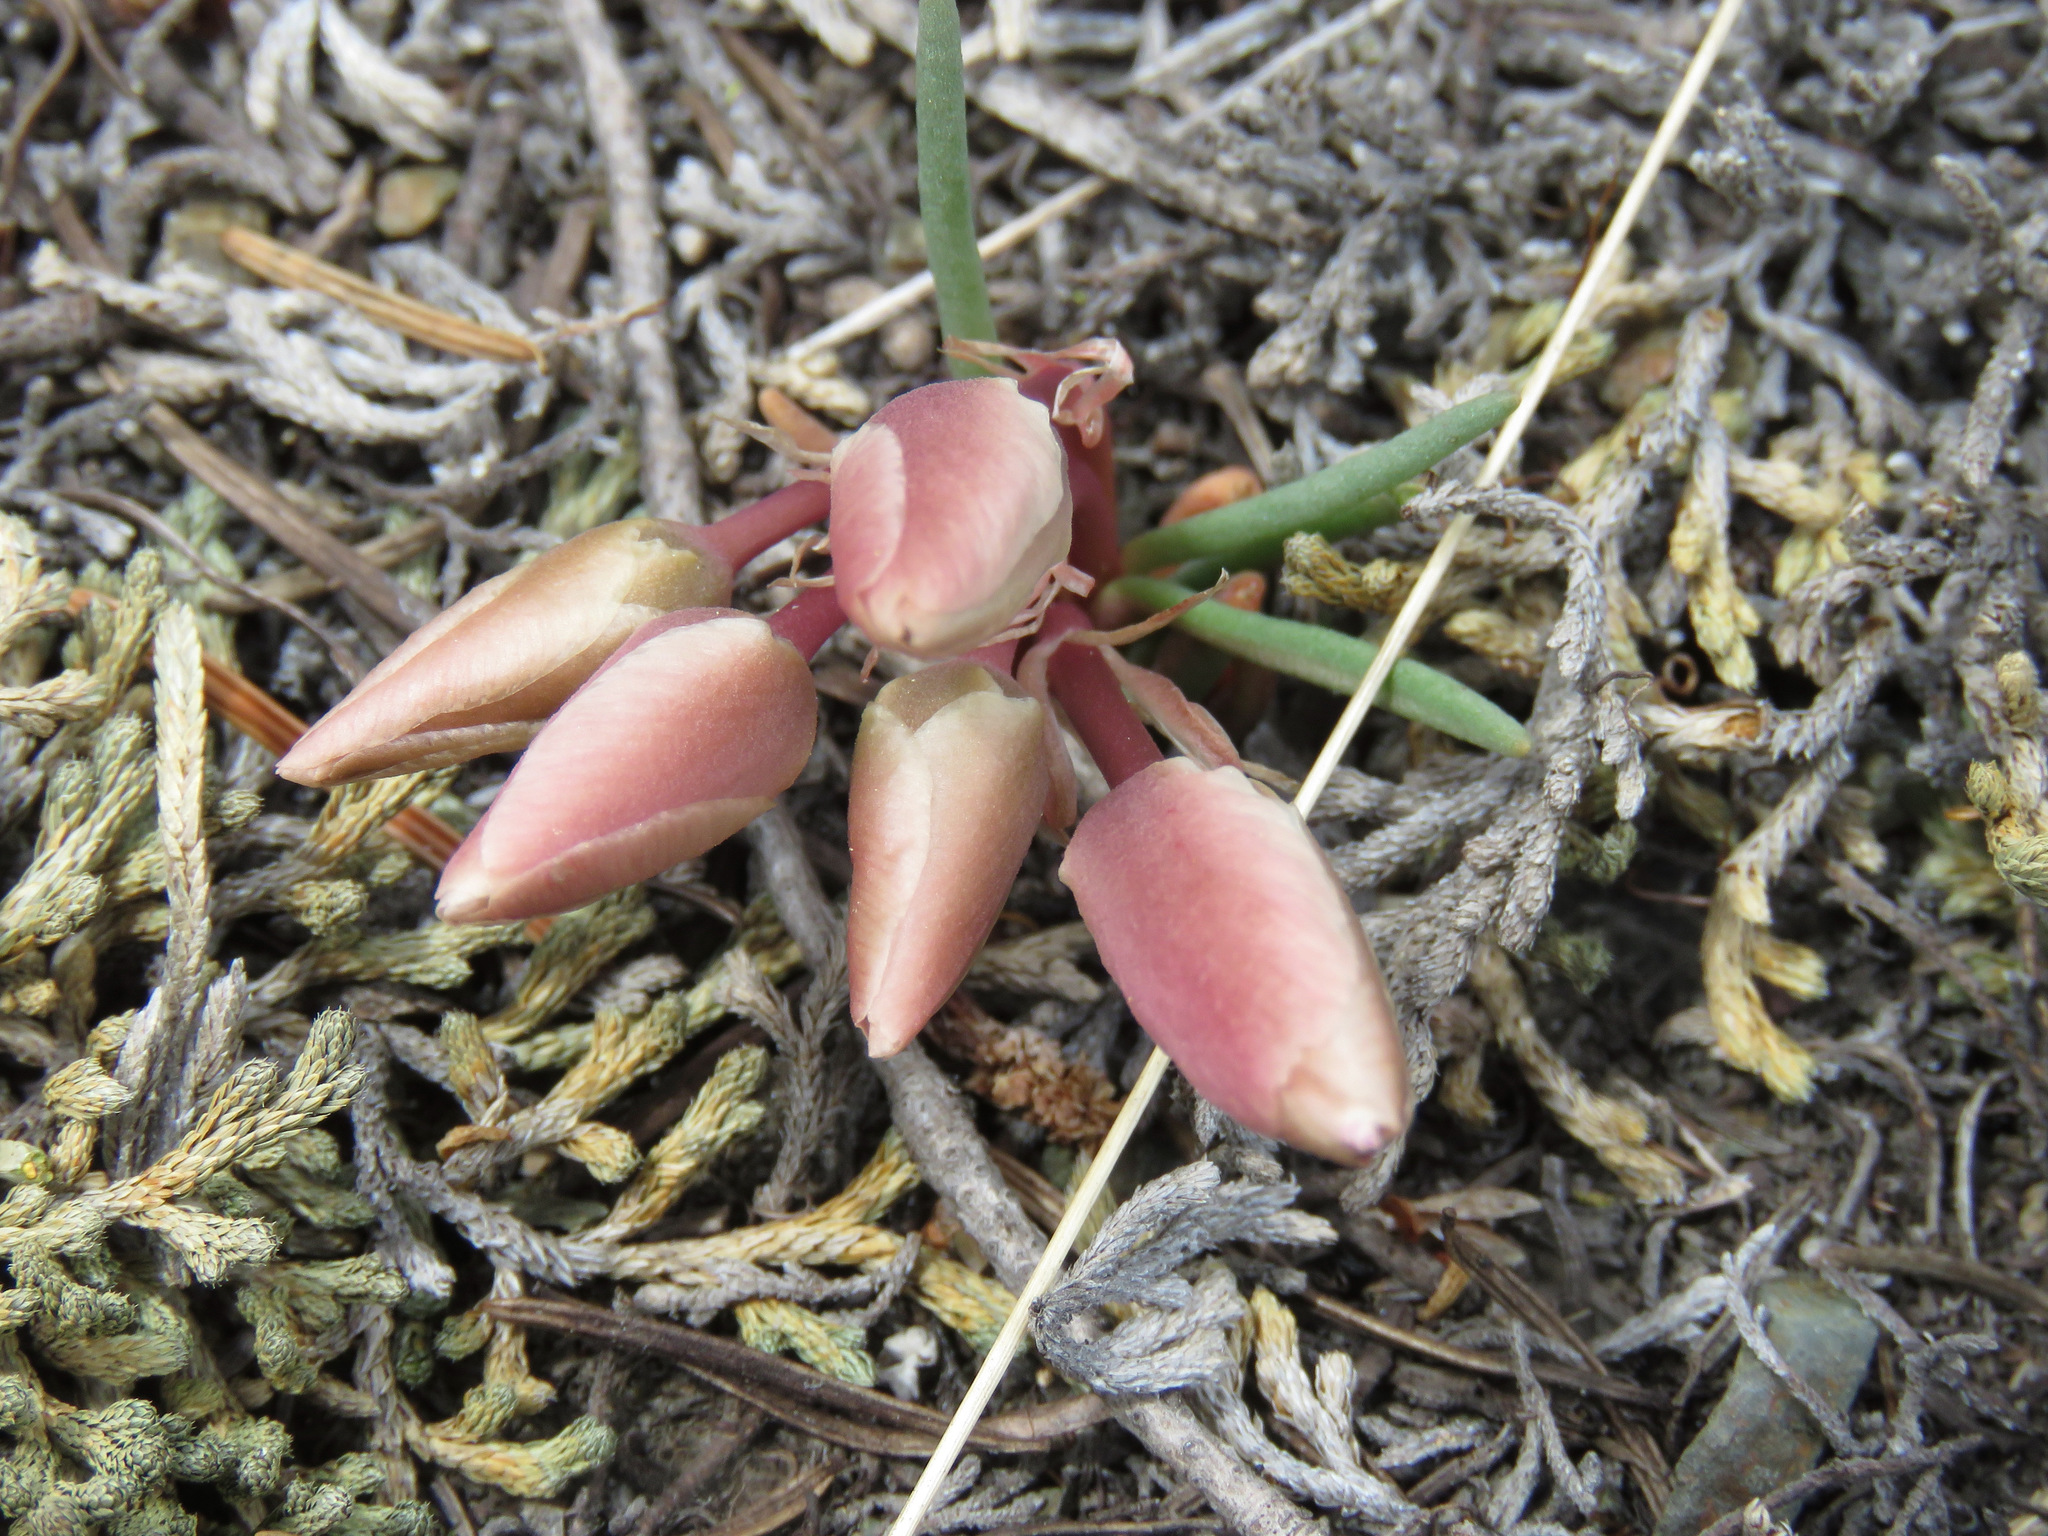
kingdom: Plantae
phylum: Tracheophyta
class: Magnoliopsida
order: Caryophyllales
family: Montiaceae
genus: Lewisia
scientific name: Lewisia rediviva
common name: Bitter-root
